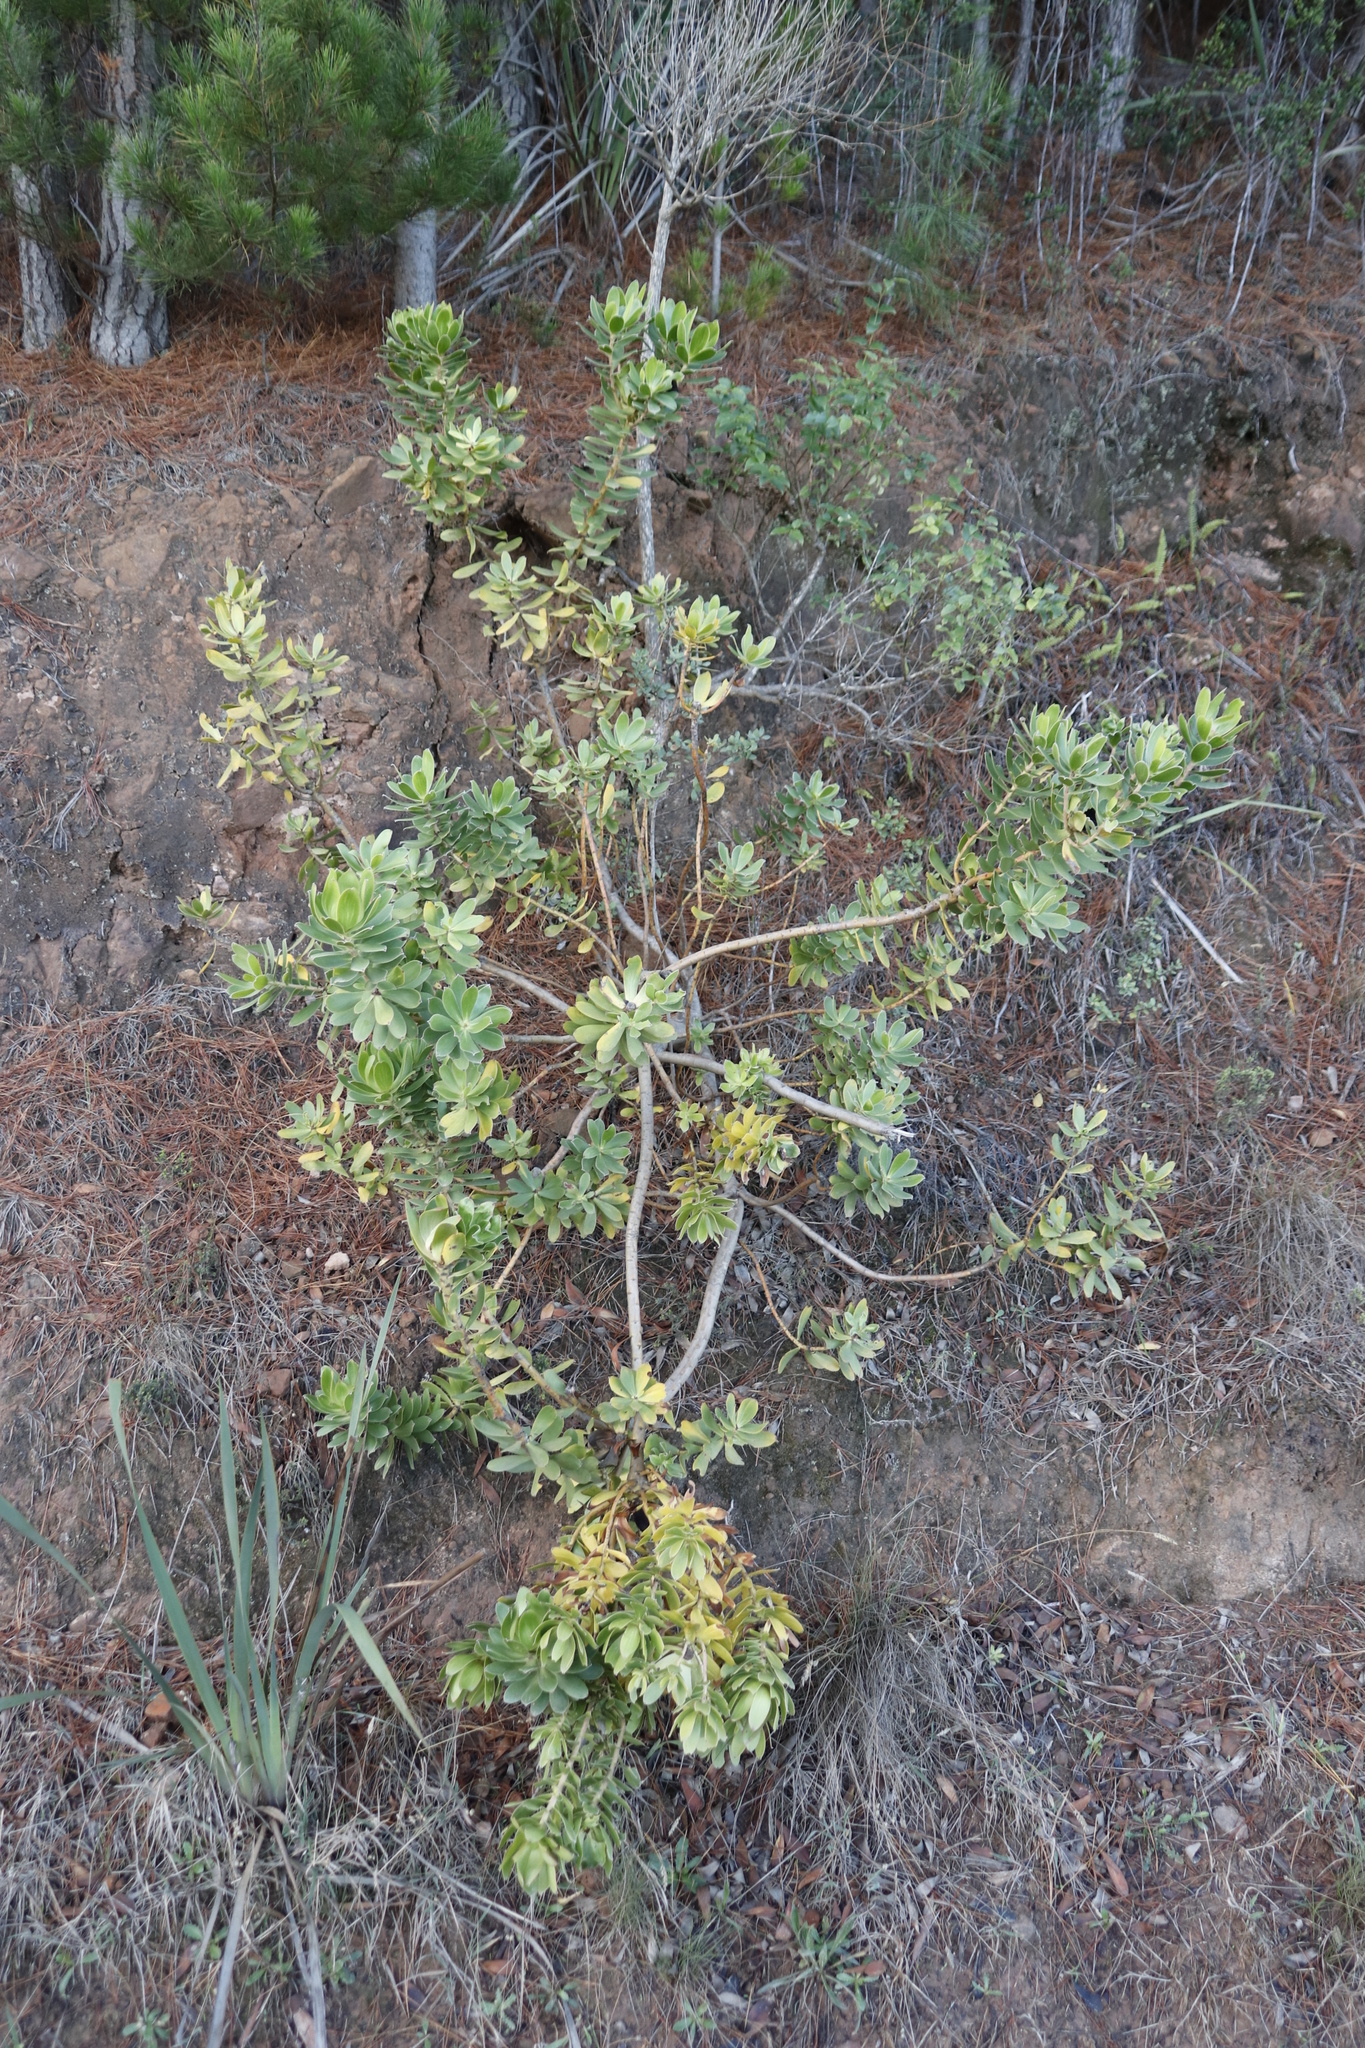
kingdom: Plantae
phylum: Tracheophyta
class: Magnoliopsida
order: Proteales
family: Proteaceae
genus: Leucadendron
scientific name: Leucadendron strobilinum
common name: Mountain rose
